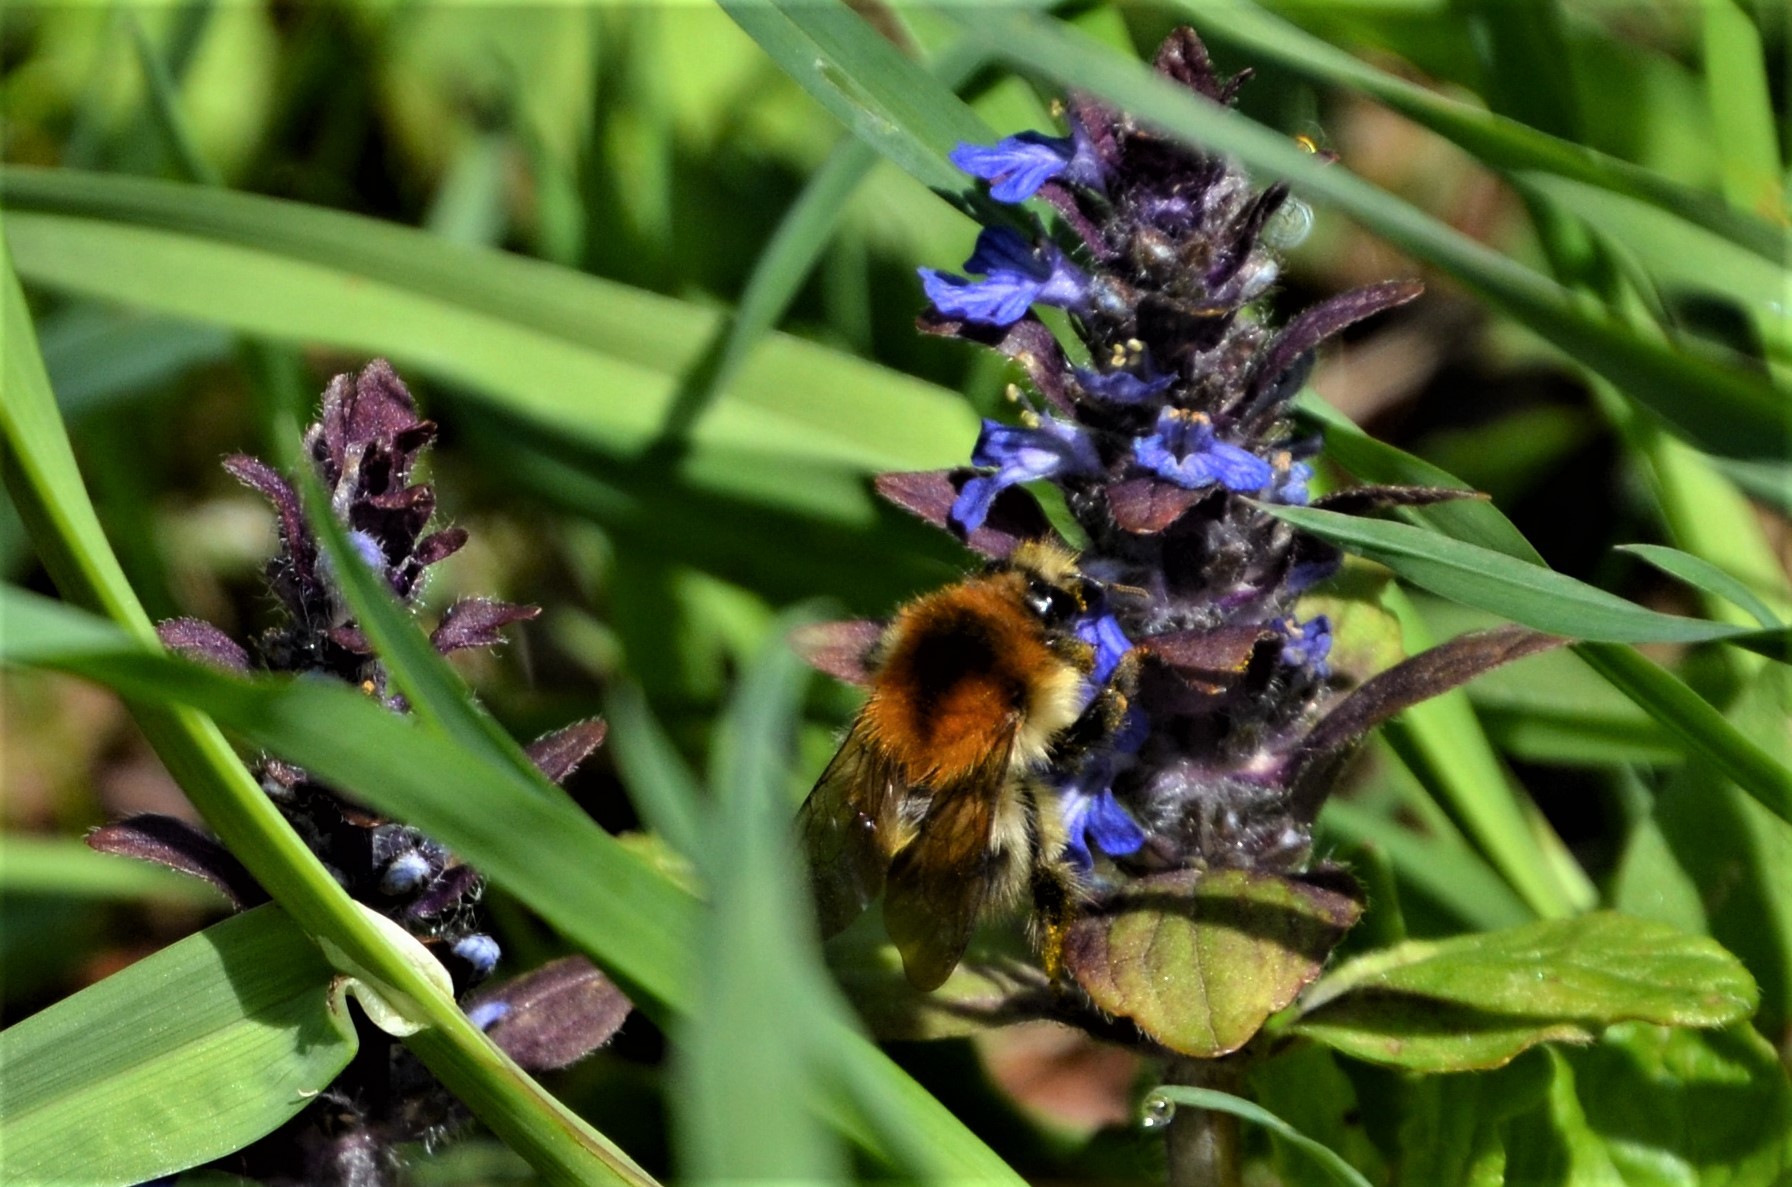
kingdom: Animalia
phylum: Arthropoda
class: Insecta
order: Hymenoptera
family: Apidae
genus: Bombus
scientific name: Bombus pascuorum
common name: Common carder bee
